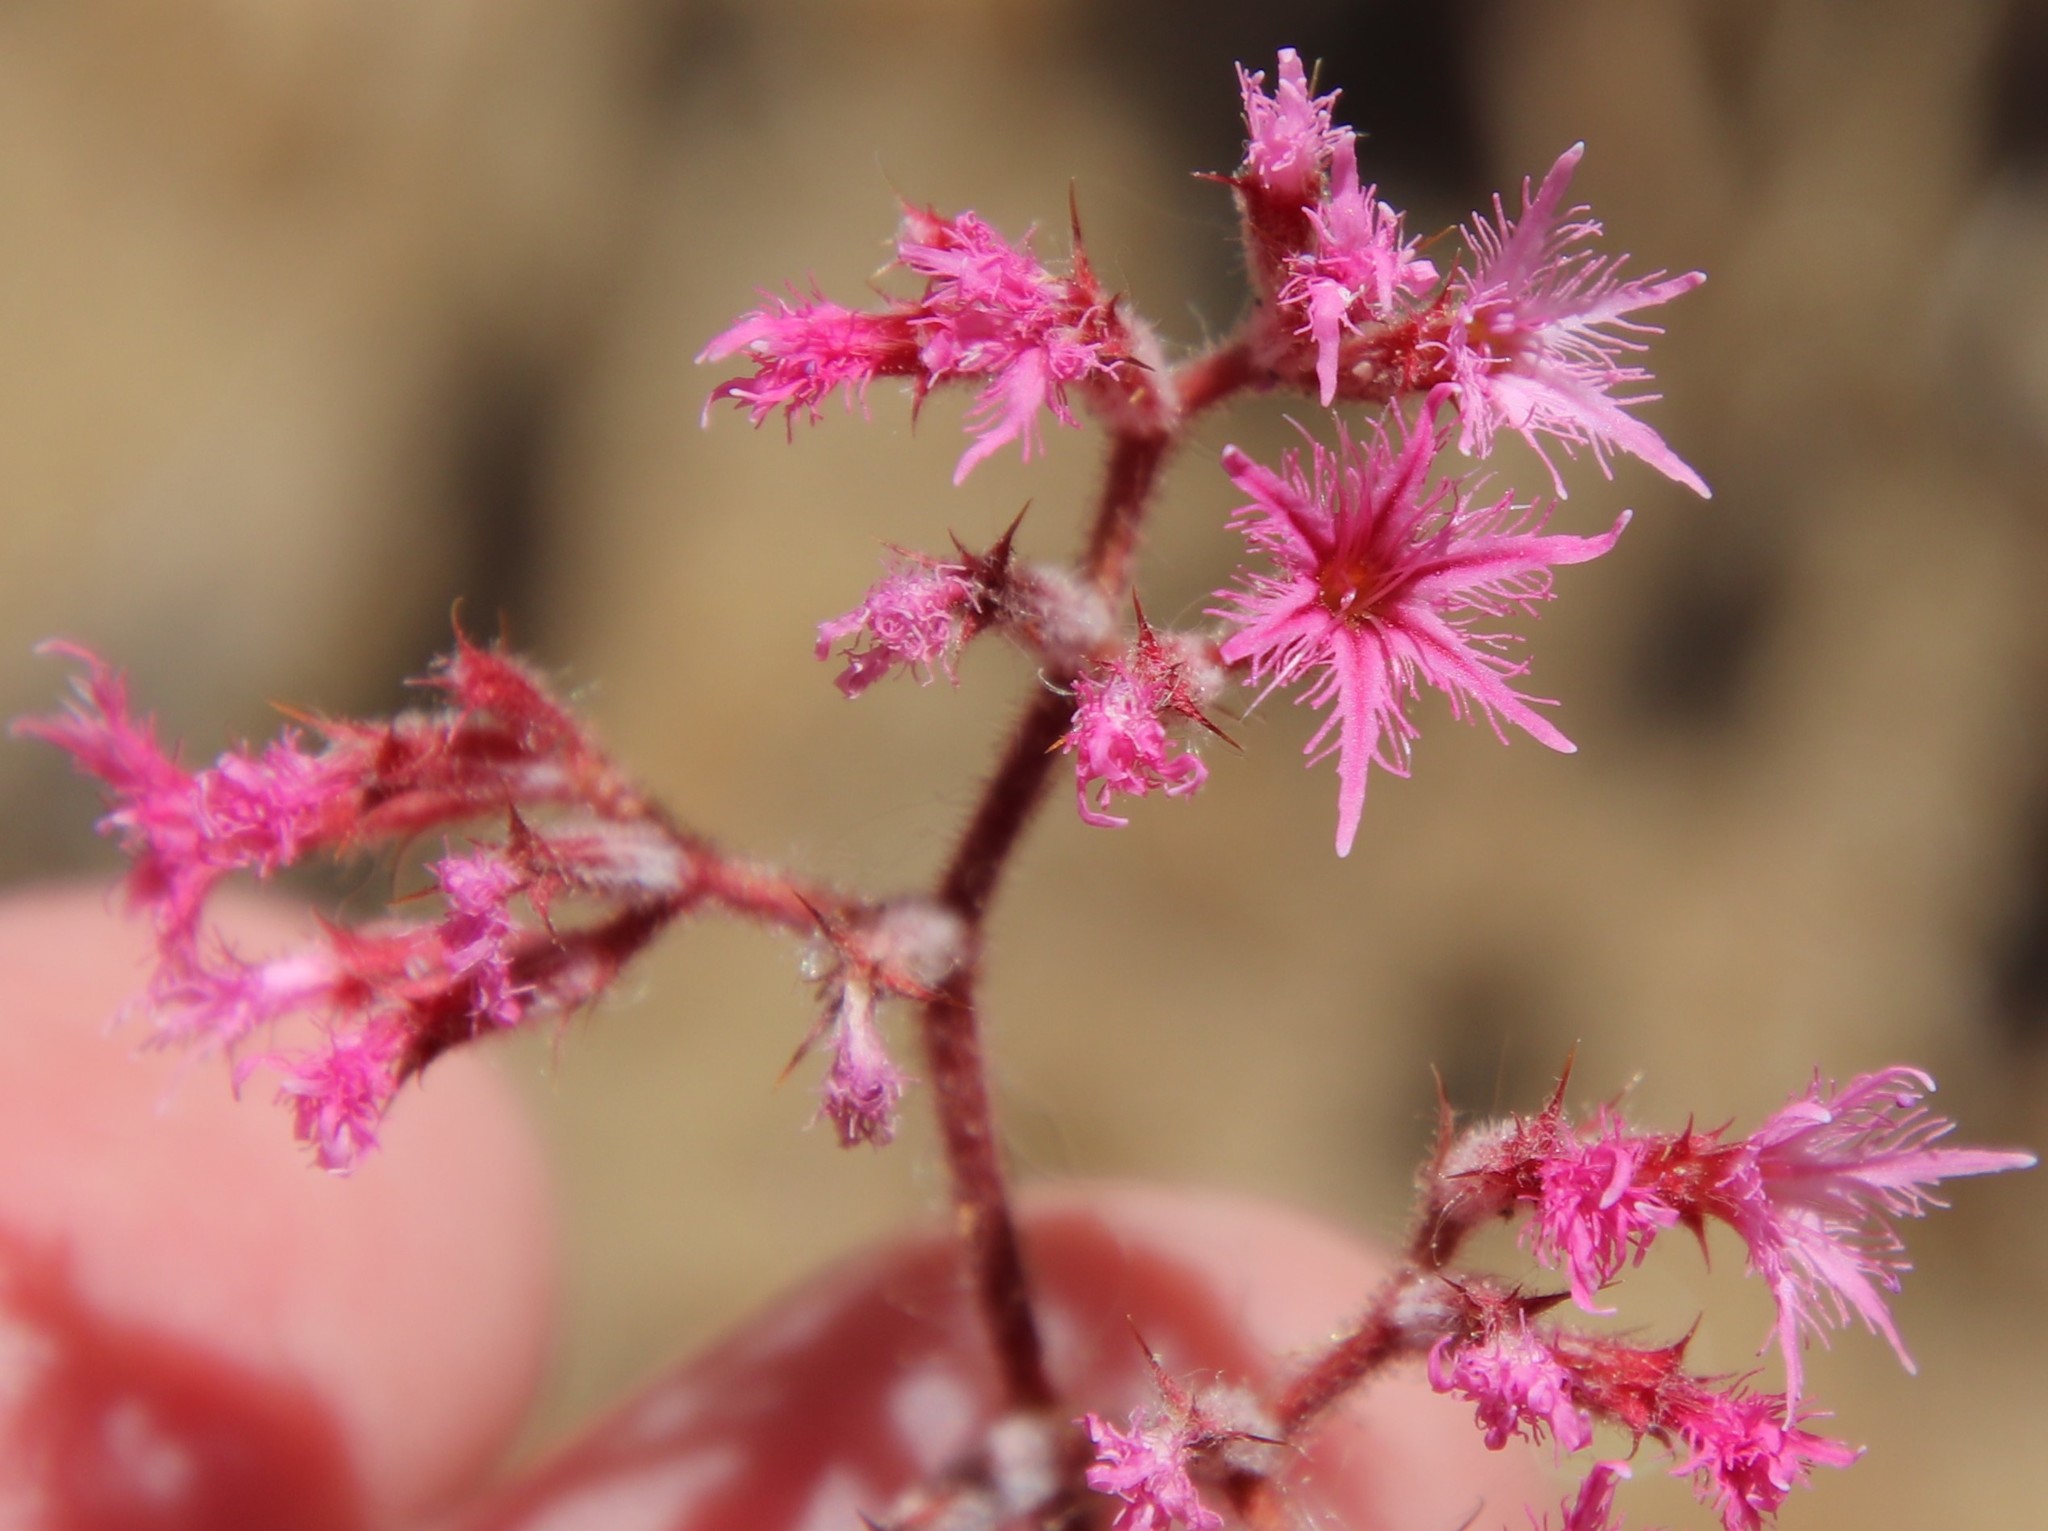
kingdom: Plantae
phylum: Tracheophyta
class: Magnoliopsida
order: Caryophyllales
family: Polygonaceae
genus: Chorizanthe
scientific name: Chorizanthe fimbriata
